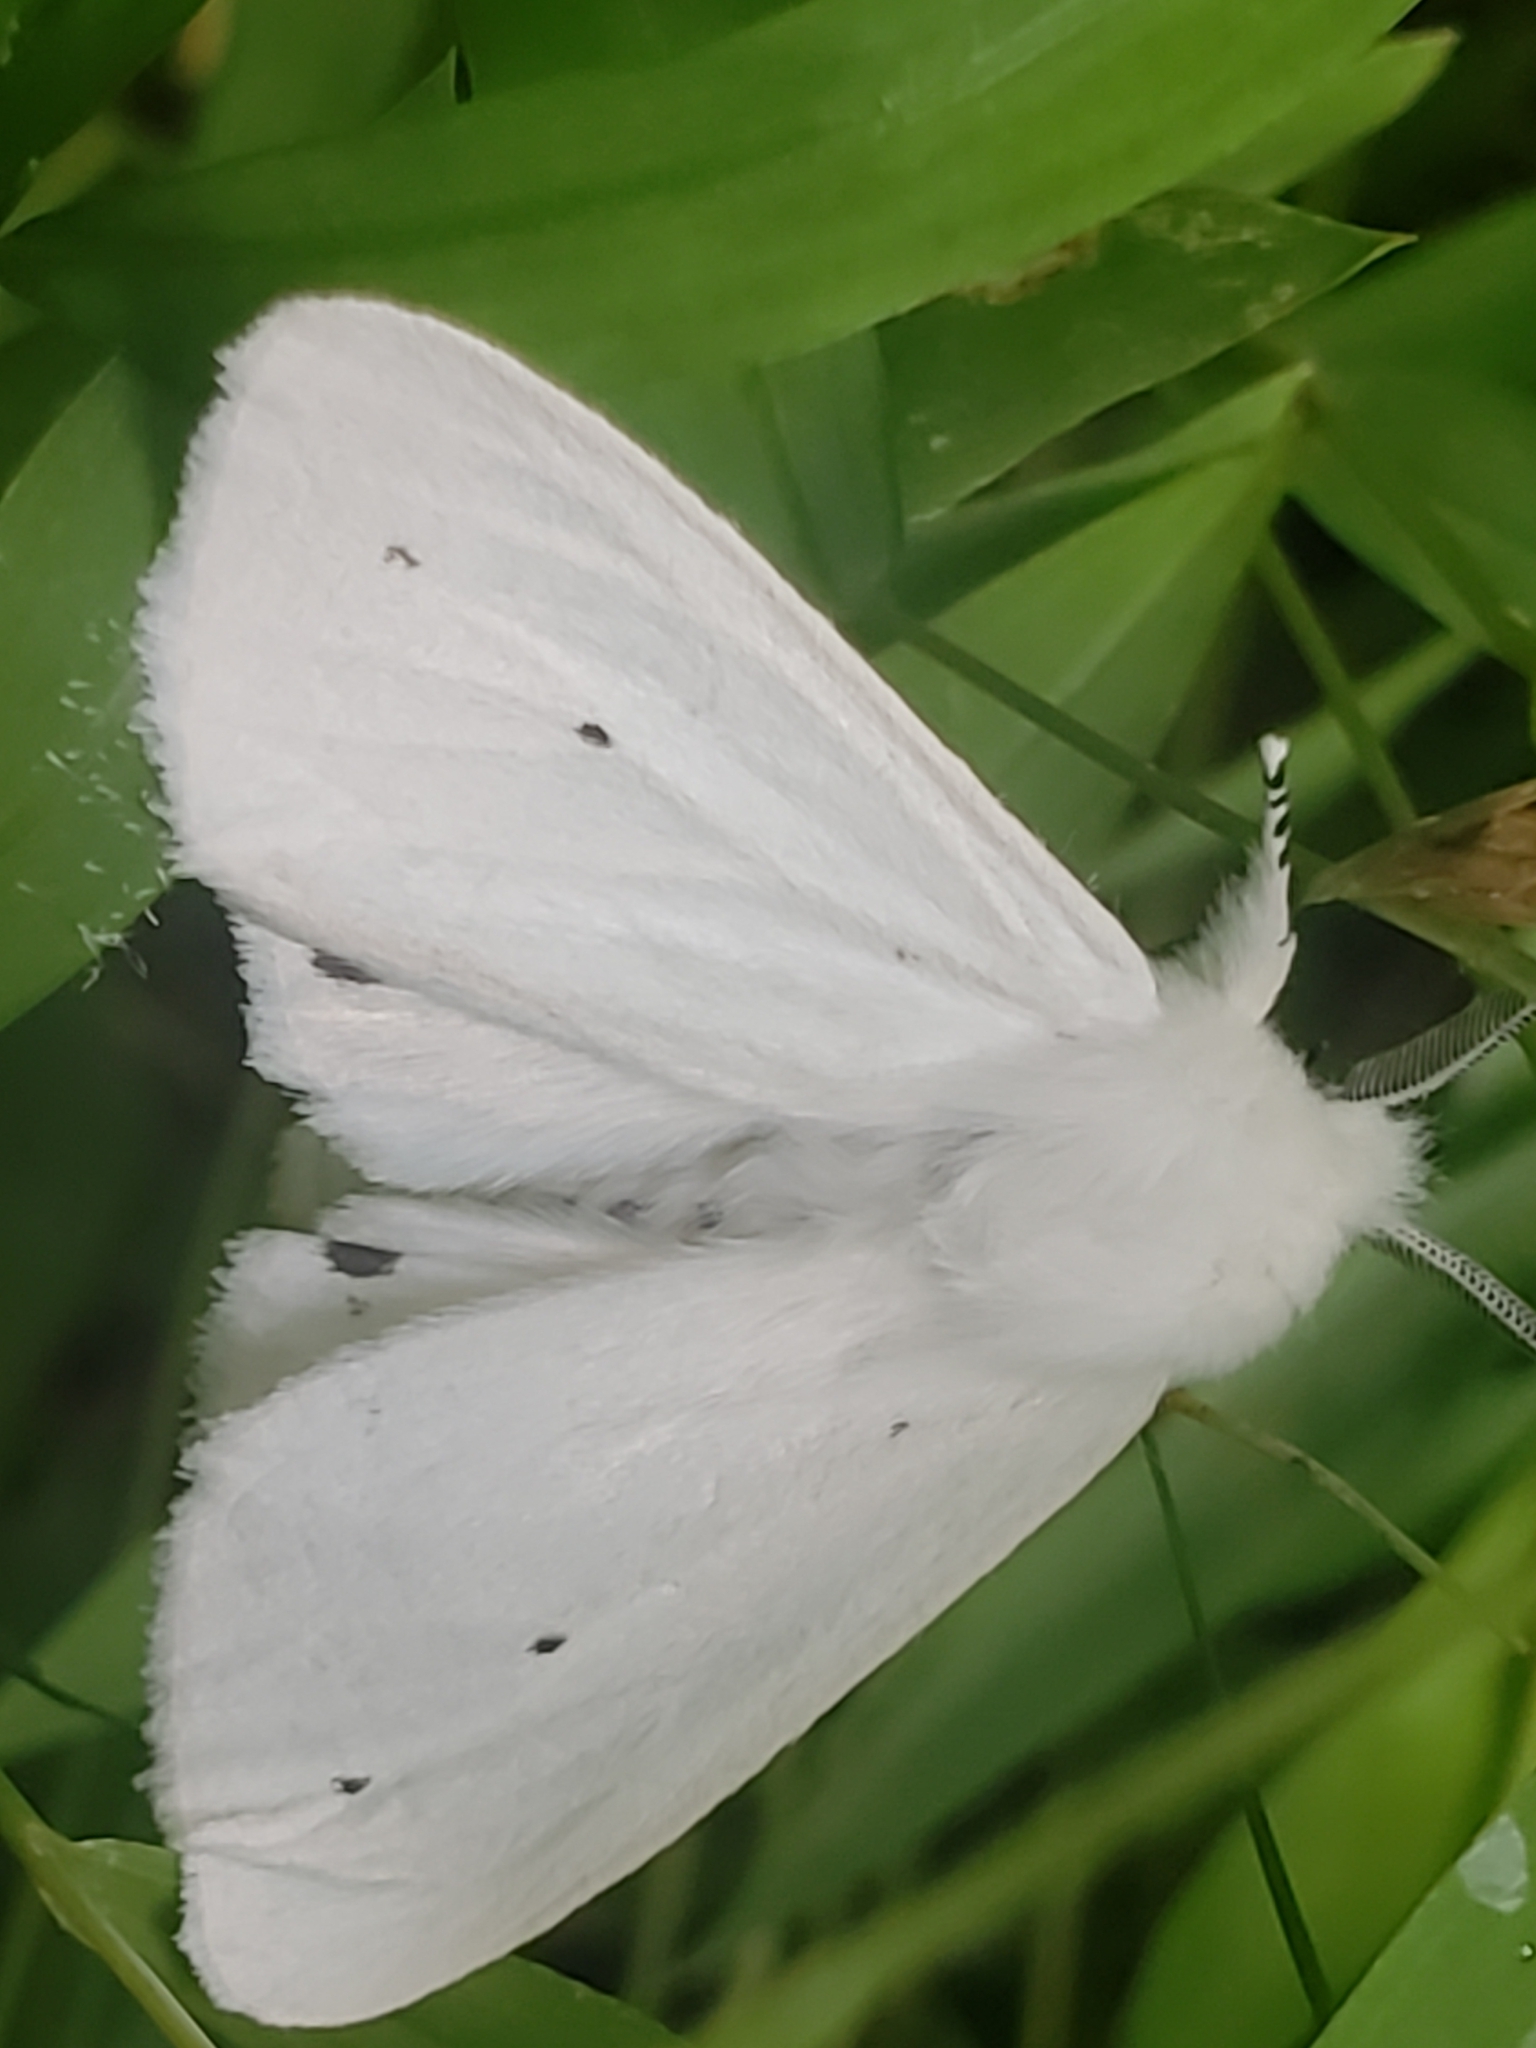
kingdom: Animalia
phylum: Arthropoda
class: Insecta
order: Lepidoptera
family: Erebidae
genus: Spilosoma
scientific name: Spilosoma virginica
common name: Virginia tiger moth
